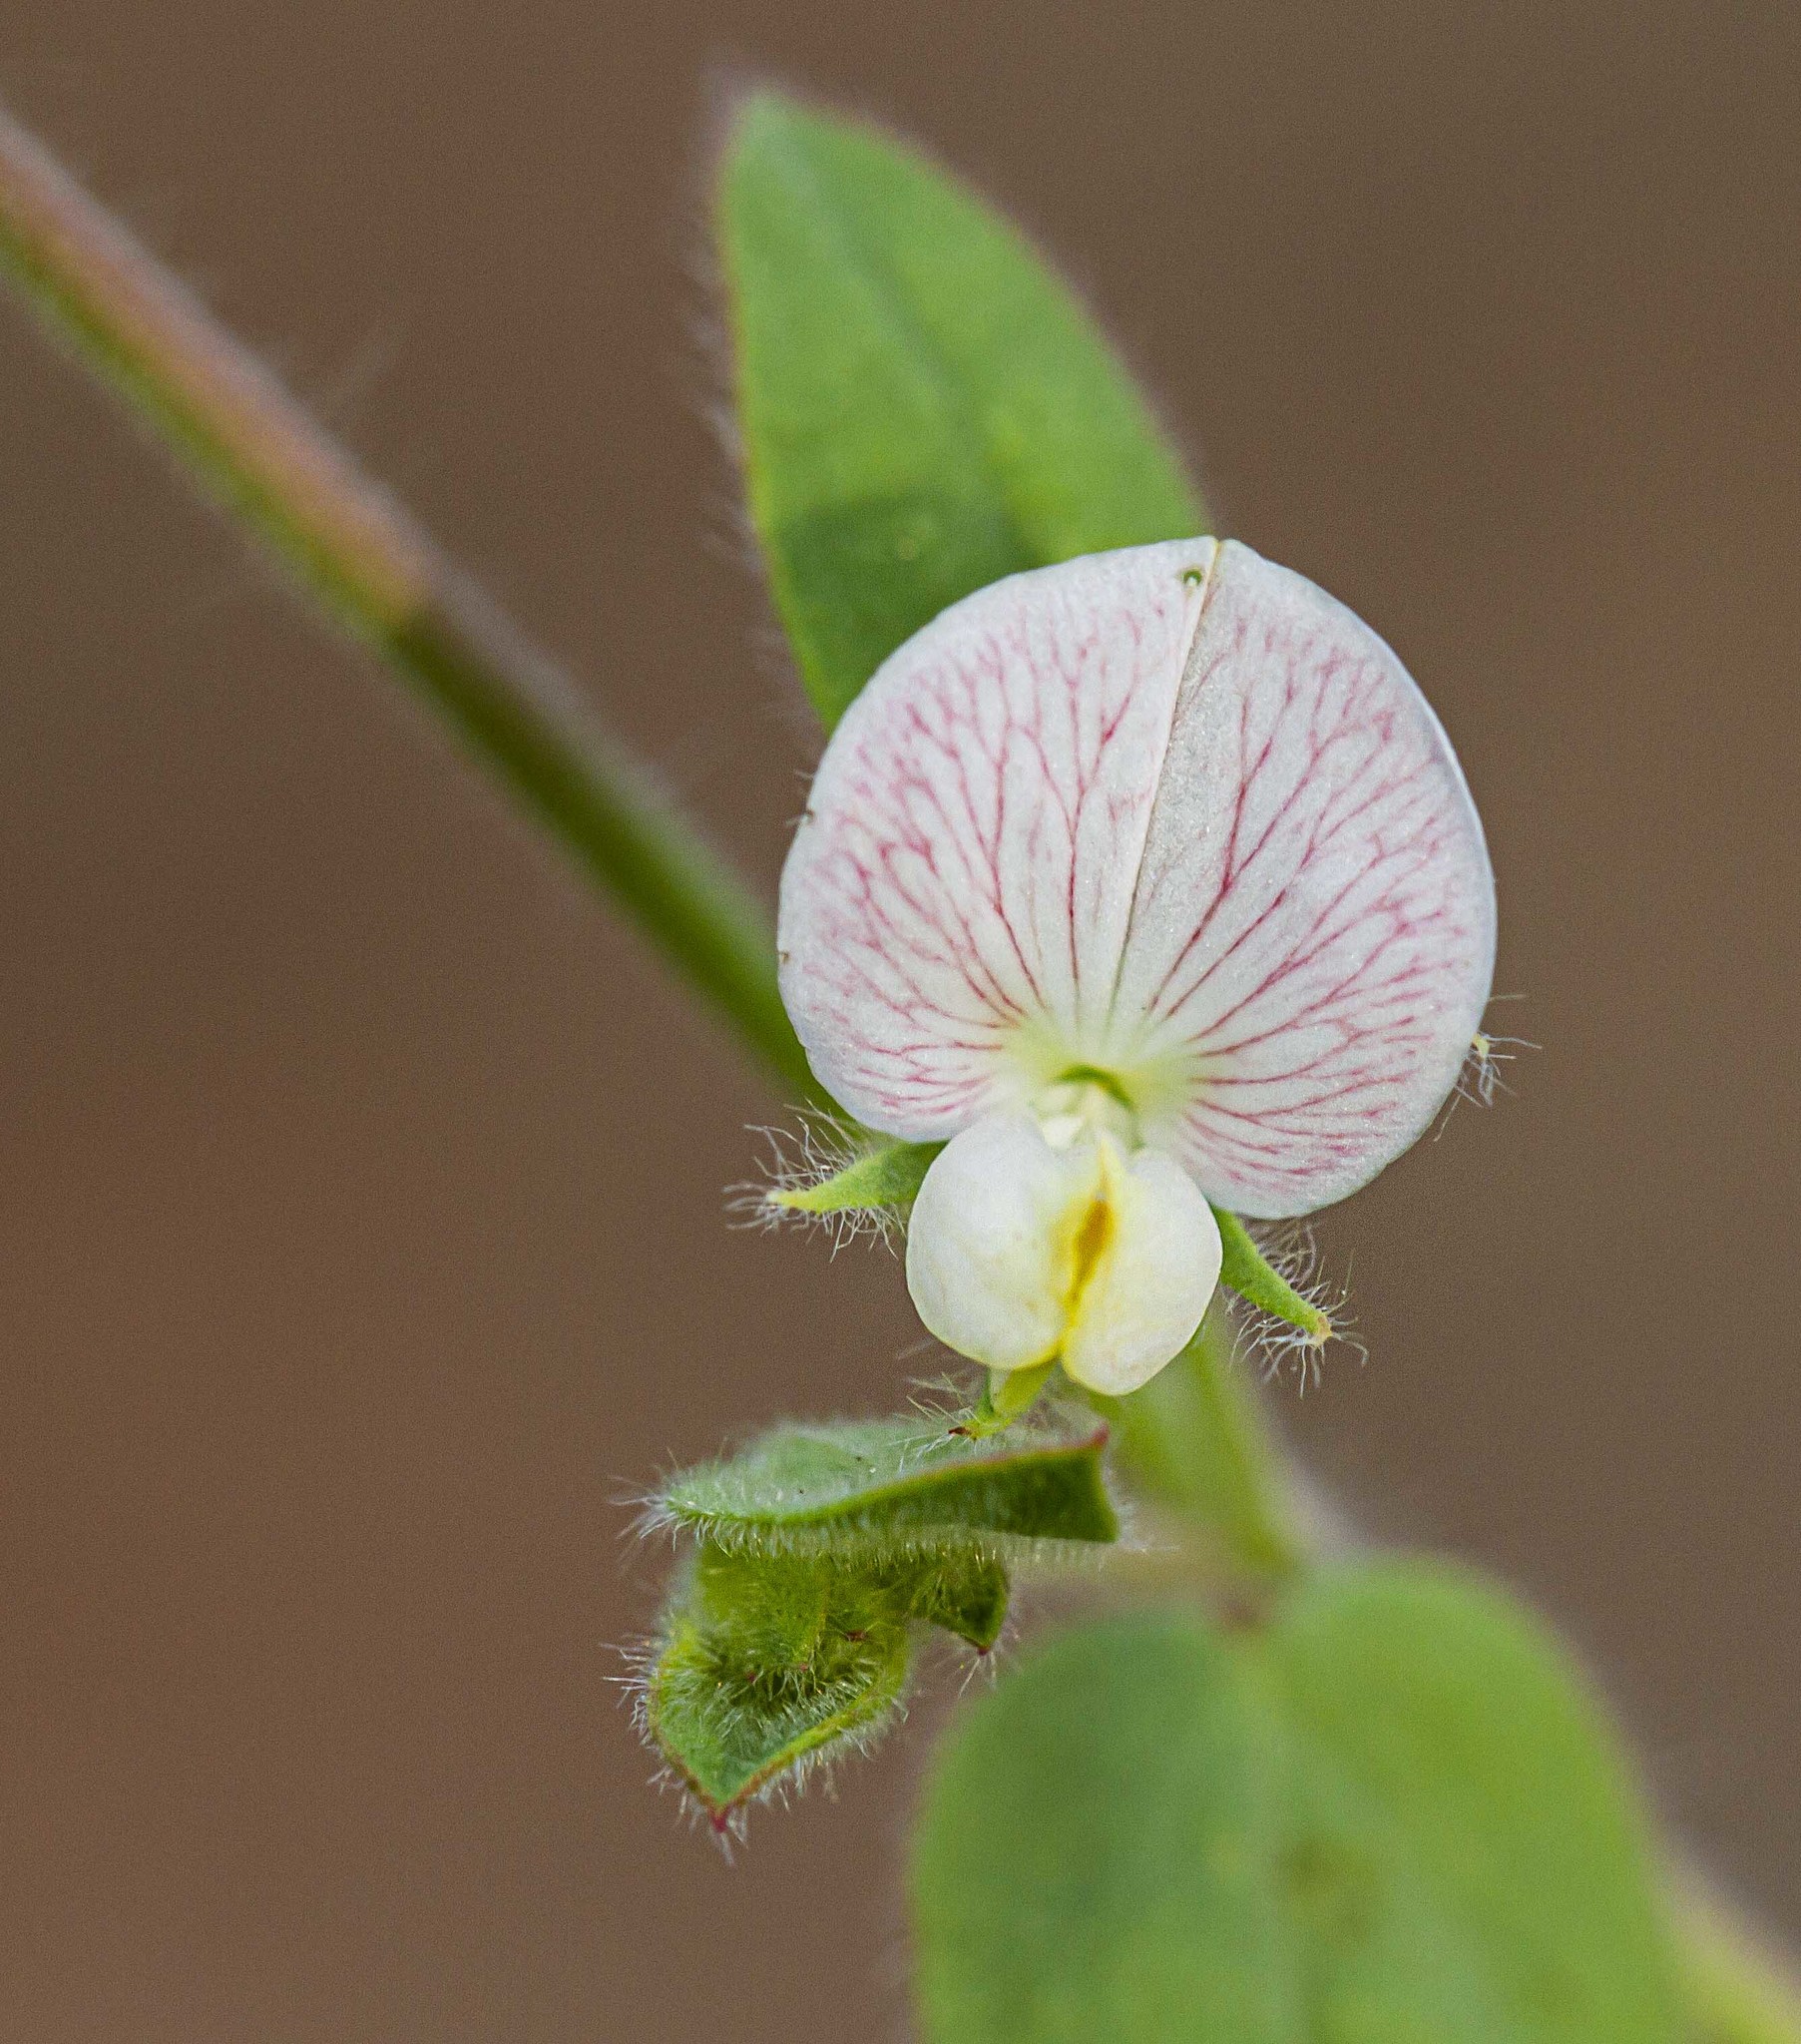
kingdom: Plantae
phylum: Tracheophyta
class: Magnoliopsida
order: Fabales
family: Fabaceae
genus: Acmispon
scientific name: Acmispon americanus
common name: American bird's-foot trefoil
